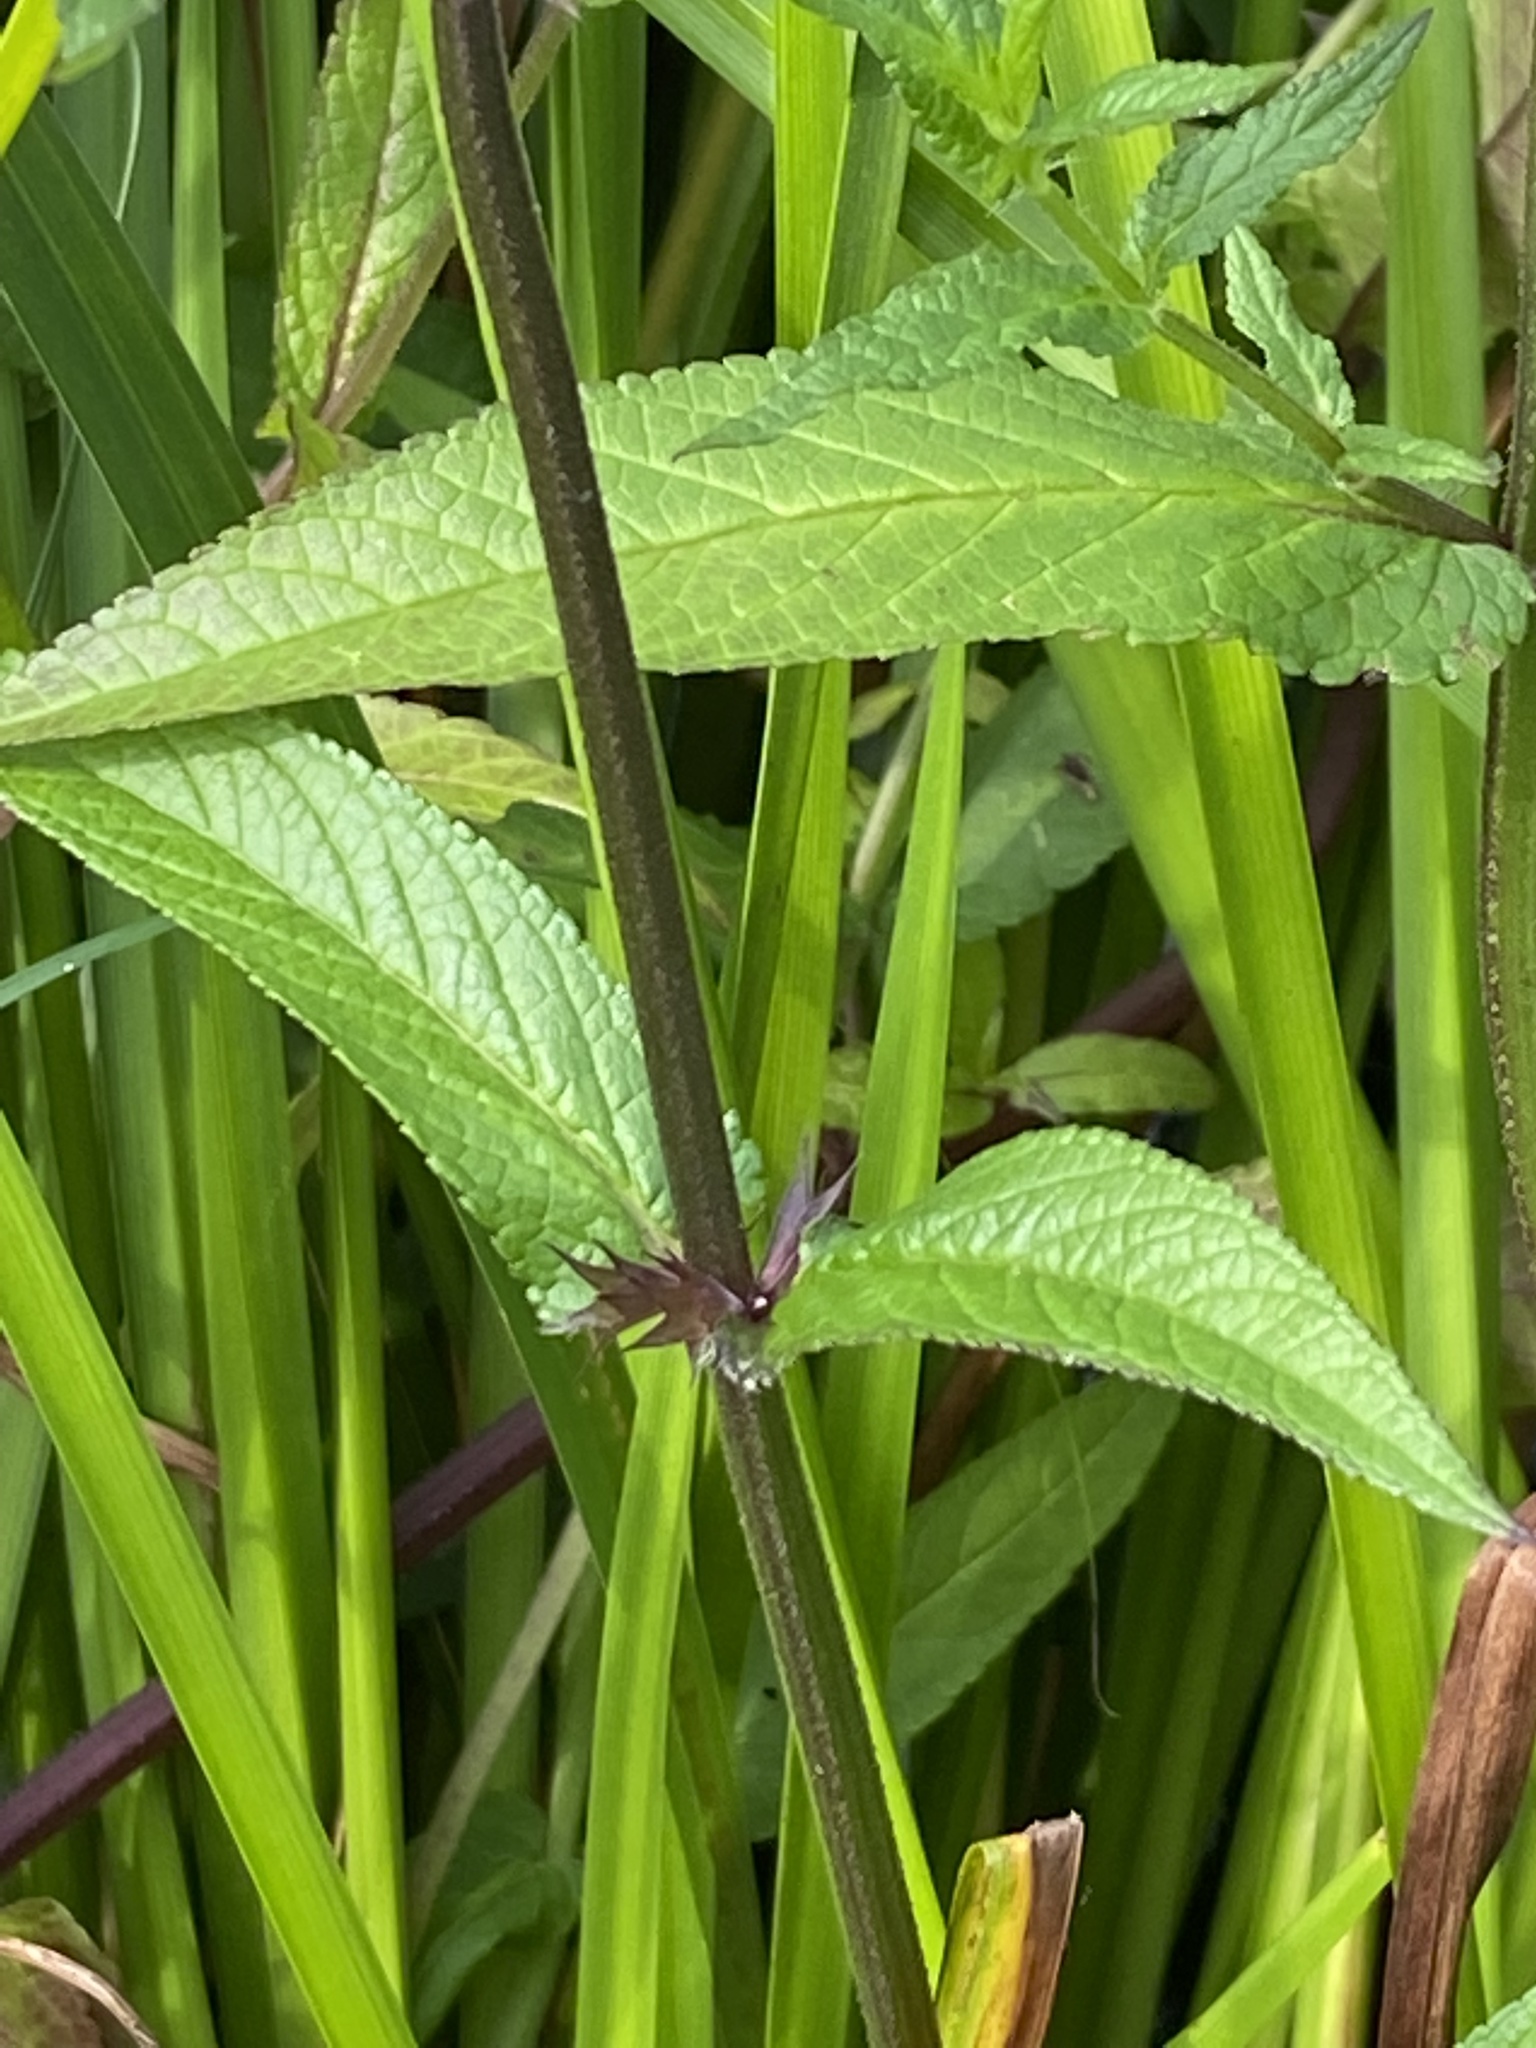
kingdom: Plantae
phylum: Tracheophyta
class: Magnoliopsida
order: Lamiales
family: Lamiaceae
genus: Stachys
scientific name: Stachys palustris
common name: Marsh woundwort
